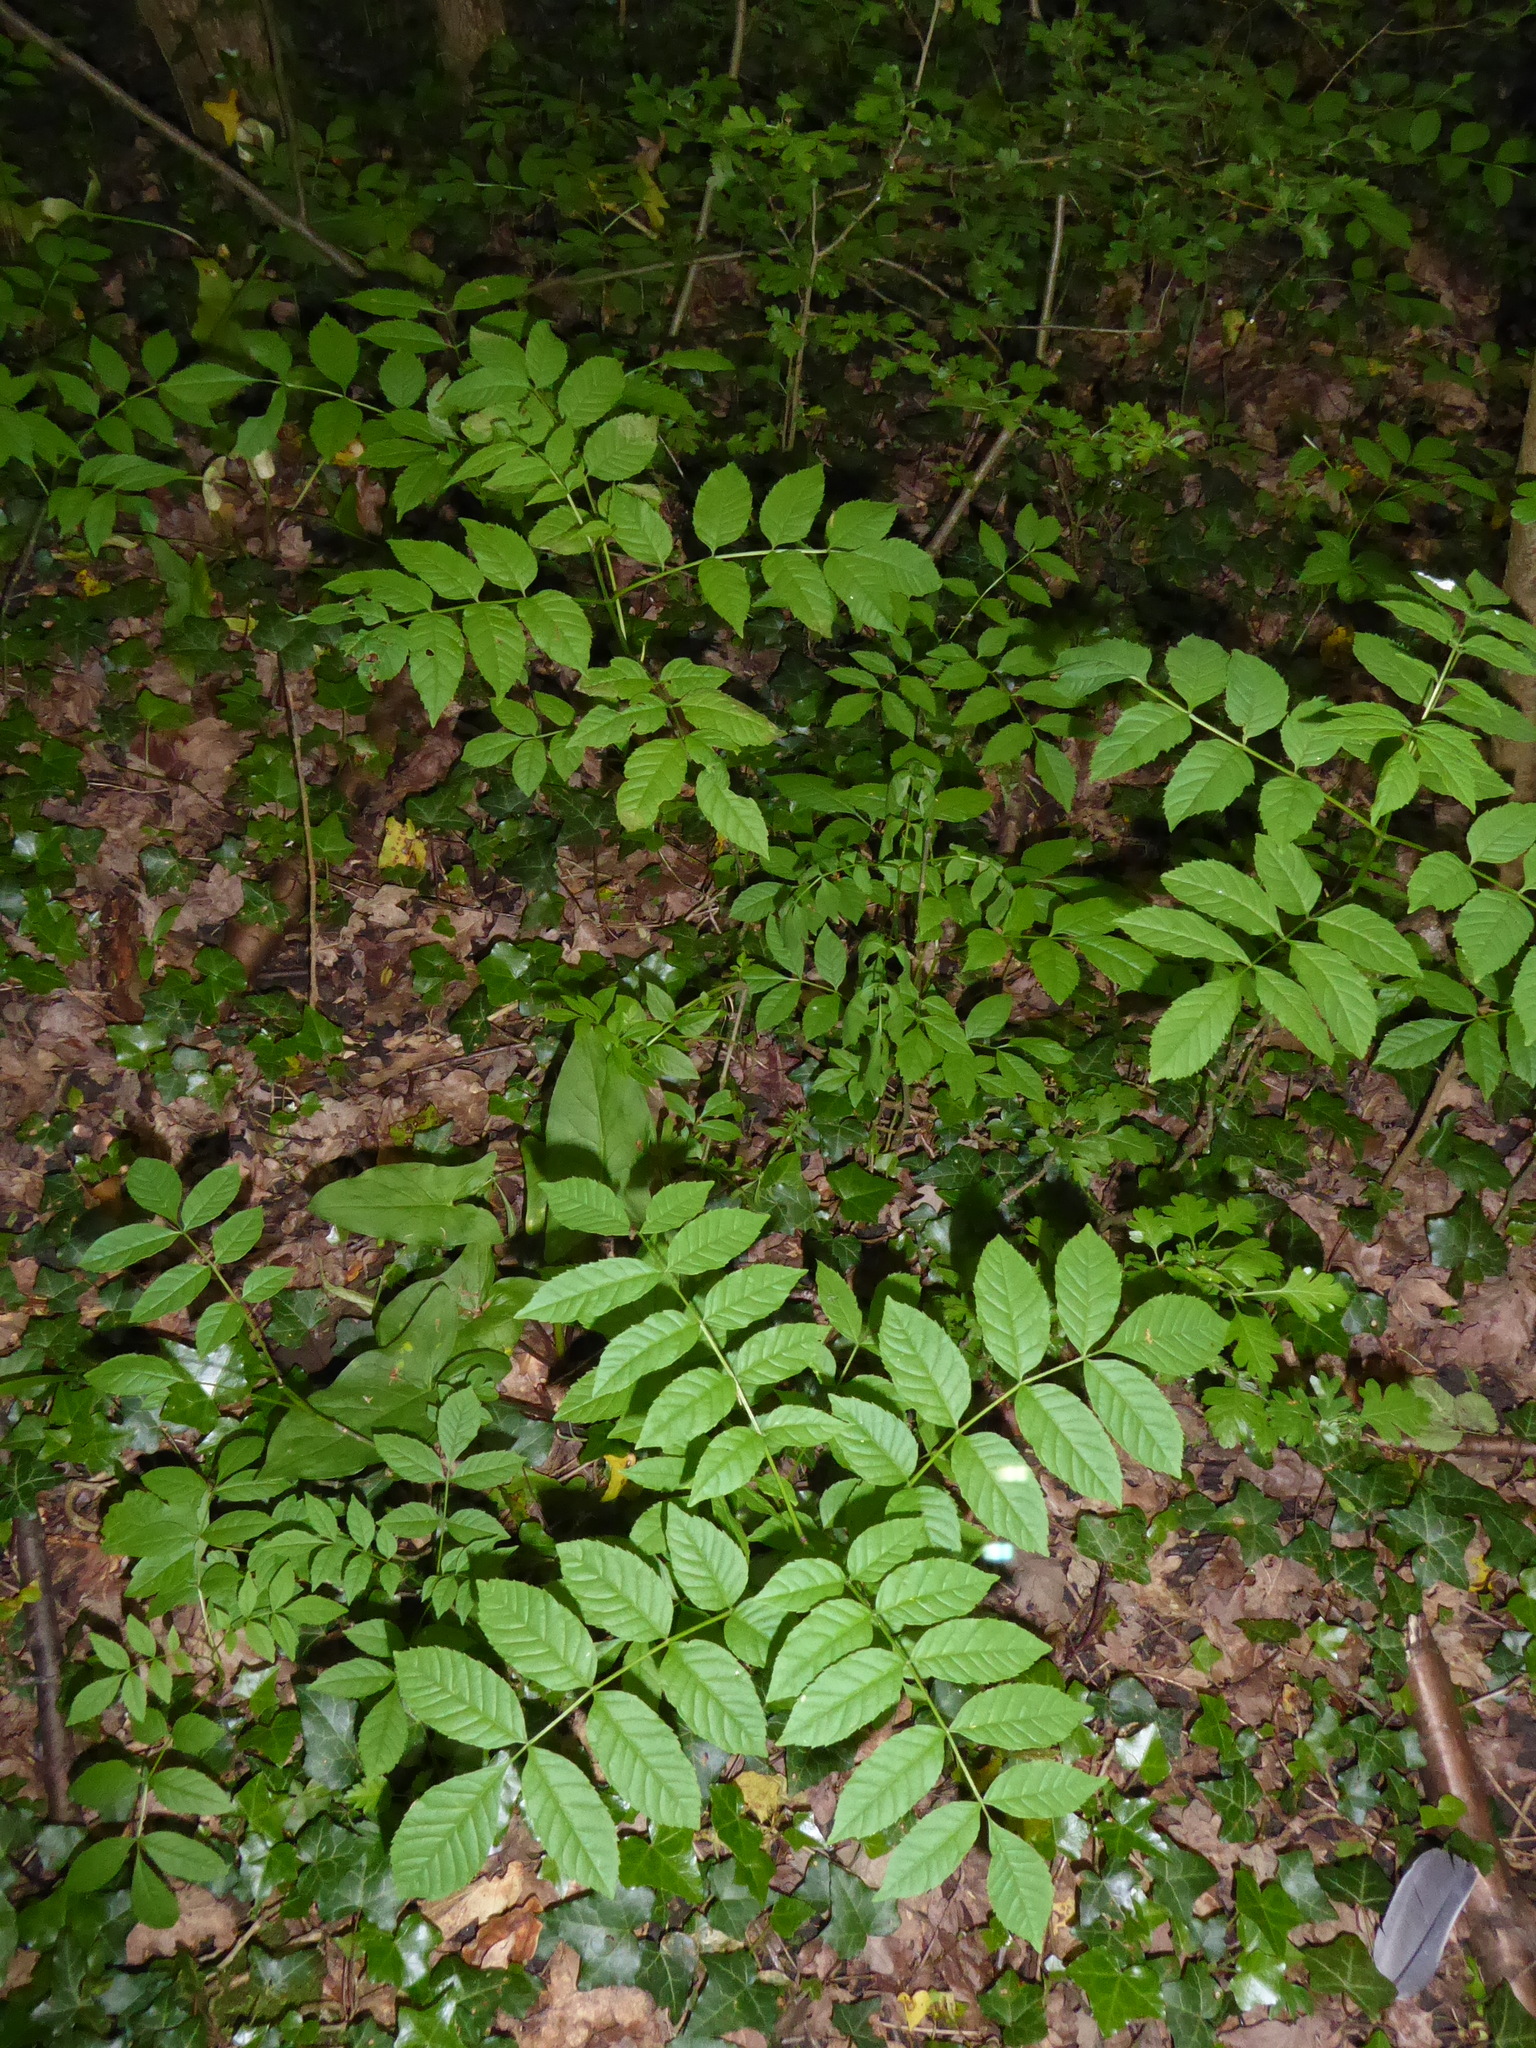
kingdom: Plantae
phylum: Tracheophyta
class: Magnoliopsida
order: Lamiales
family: Oleaceae
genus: Fraxinus
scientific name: Fraxinus excelsior
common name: European ash
